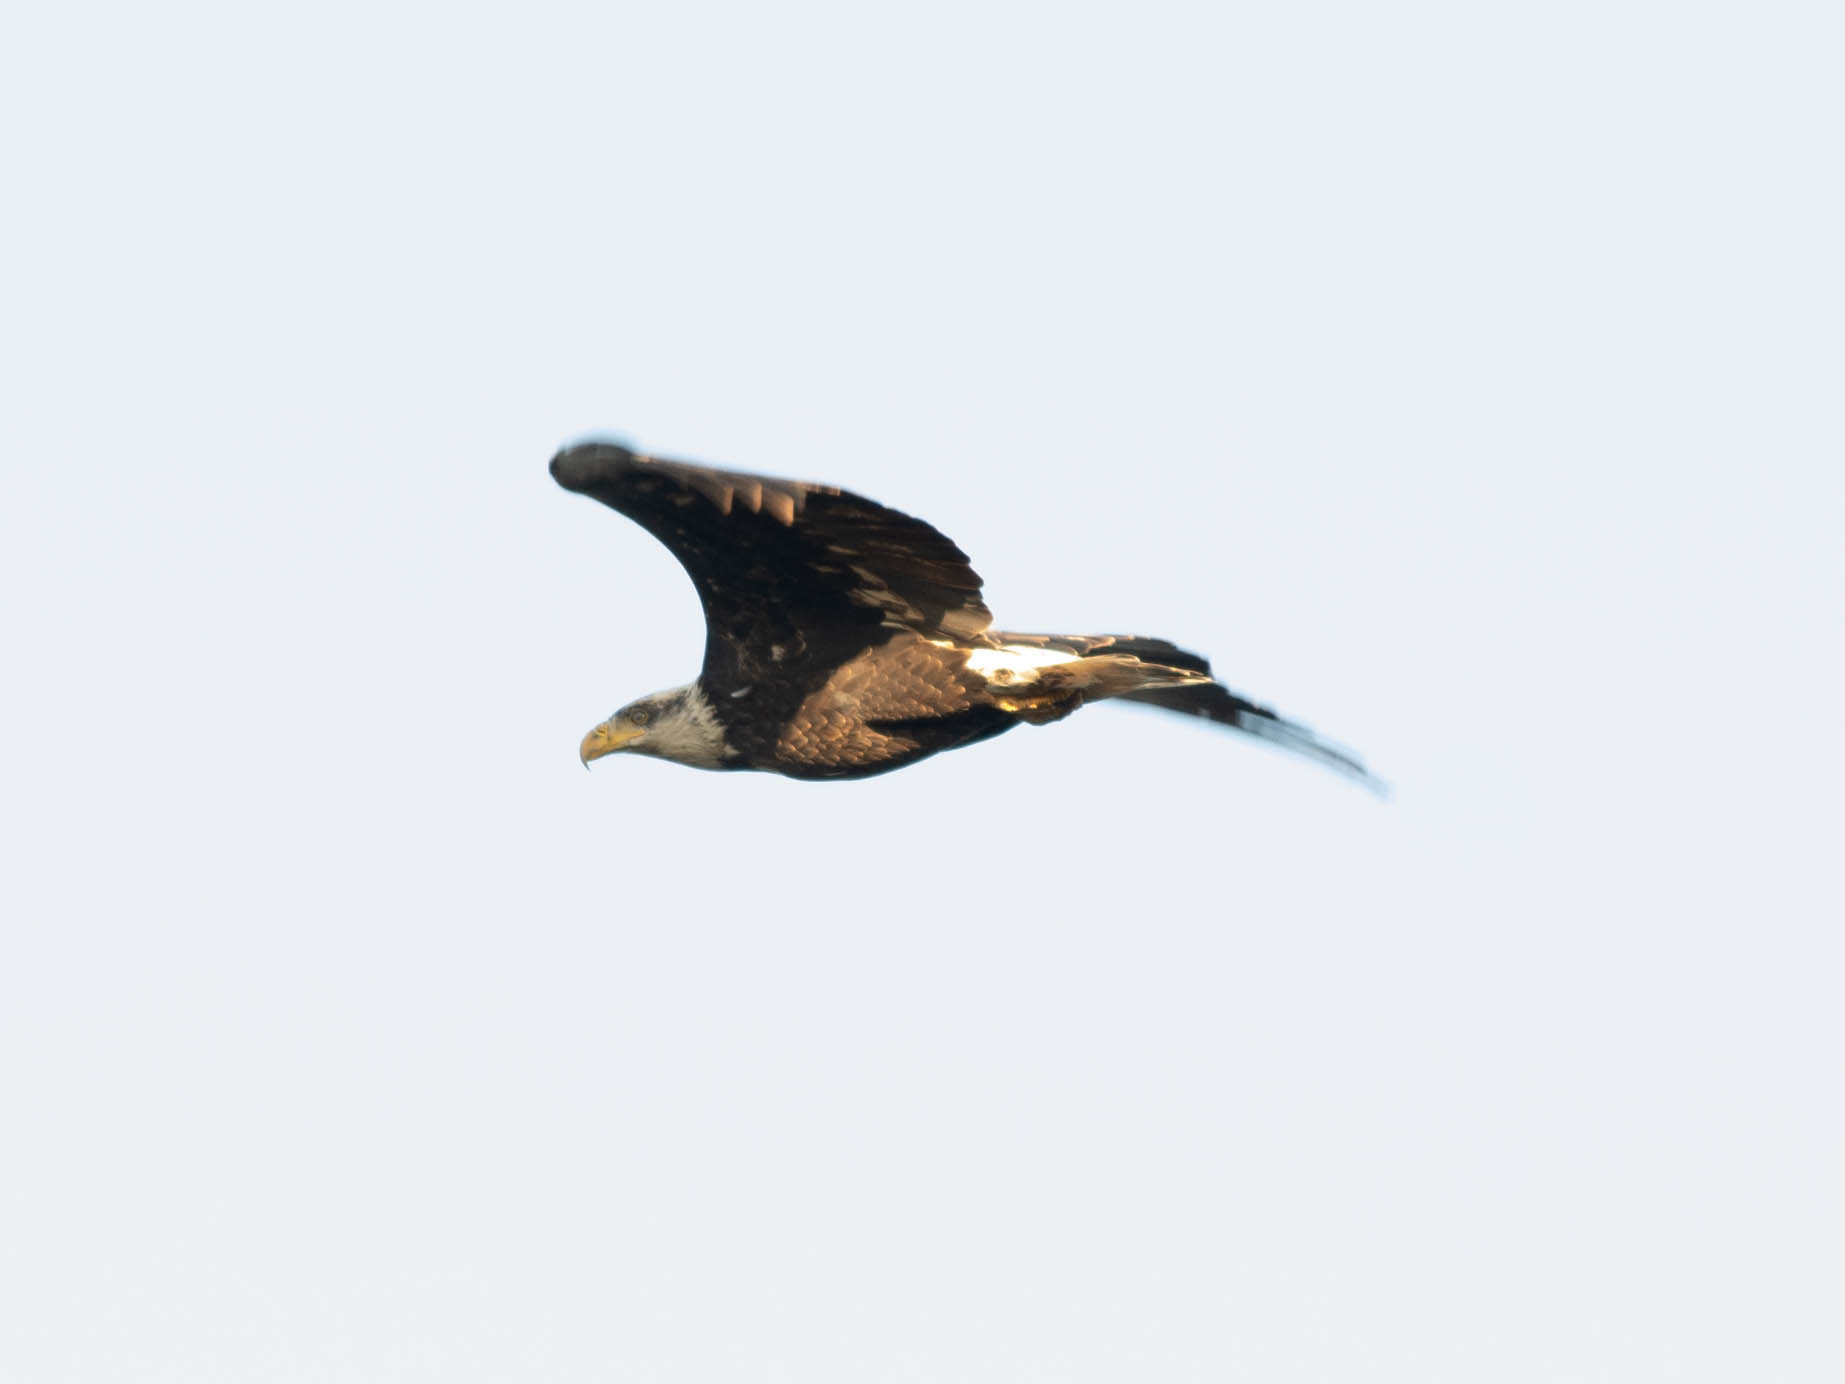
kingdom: Animalia
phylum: Chordata
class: Aves
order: Accipitriformes
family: Accipitridae
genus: Haliaeetus
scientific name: Haliaeetus leucocephalus
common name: Bald eagle
